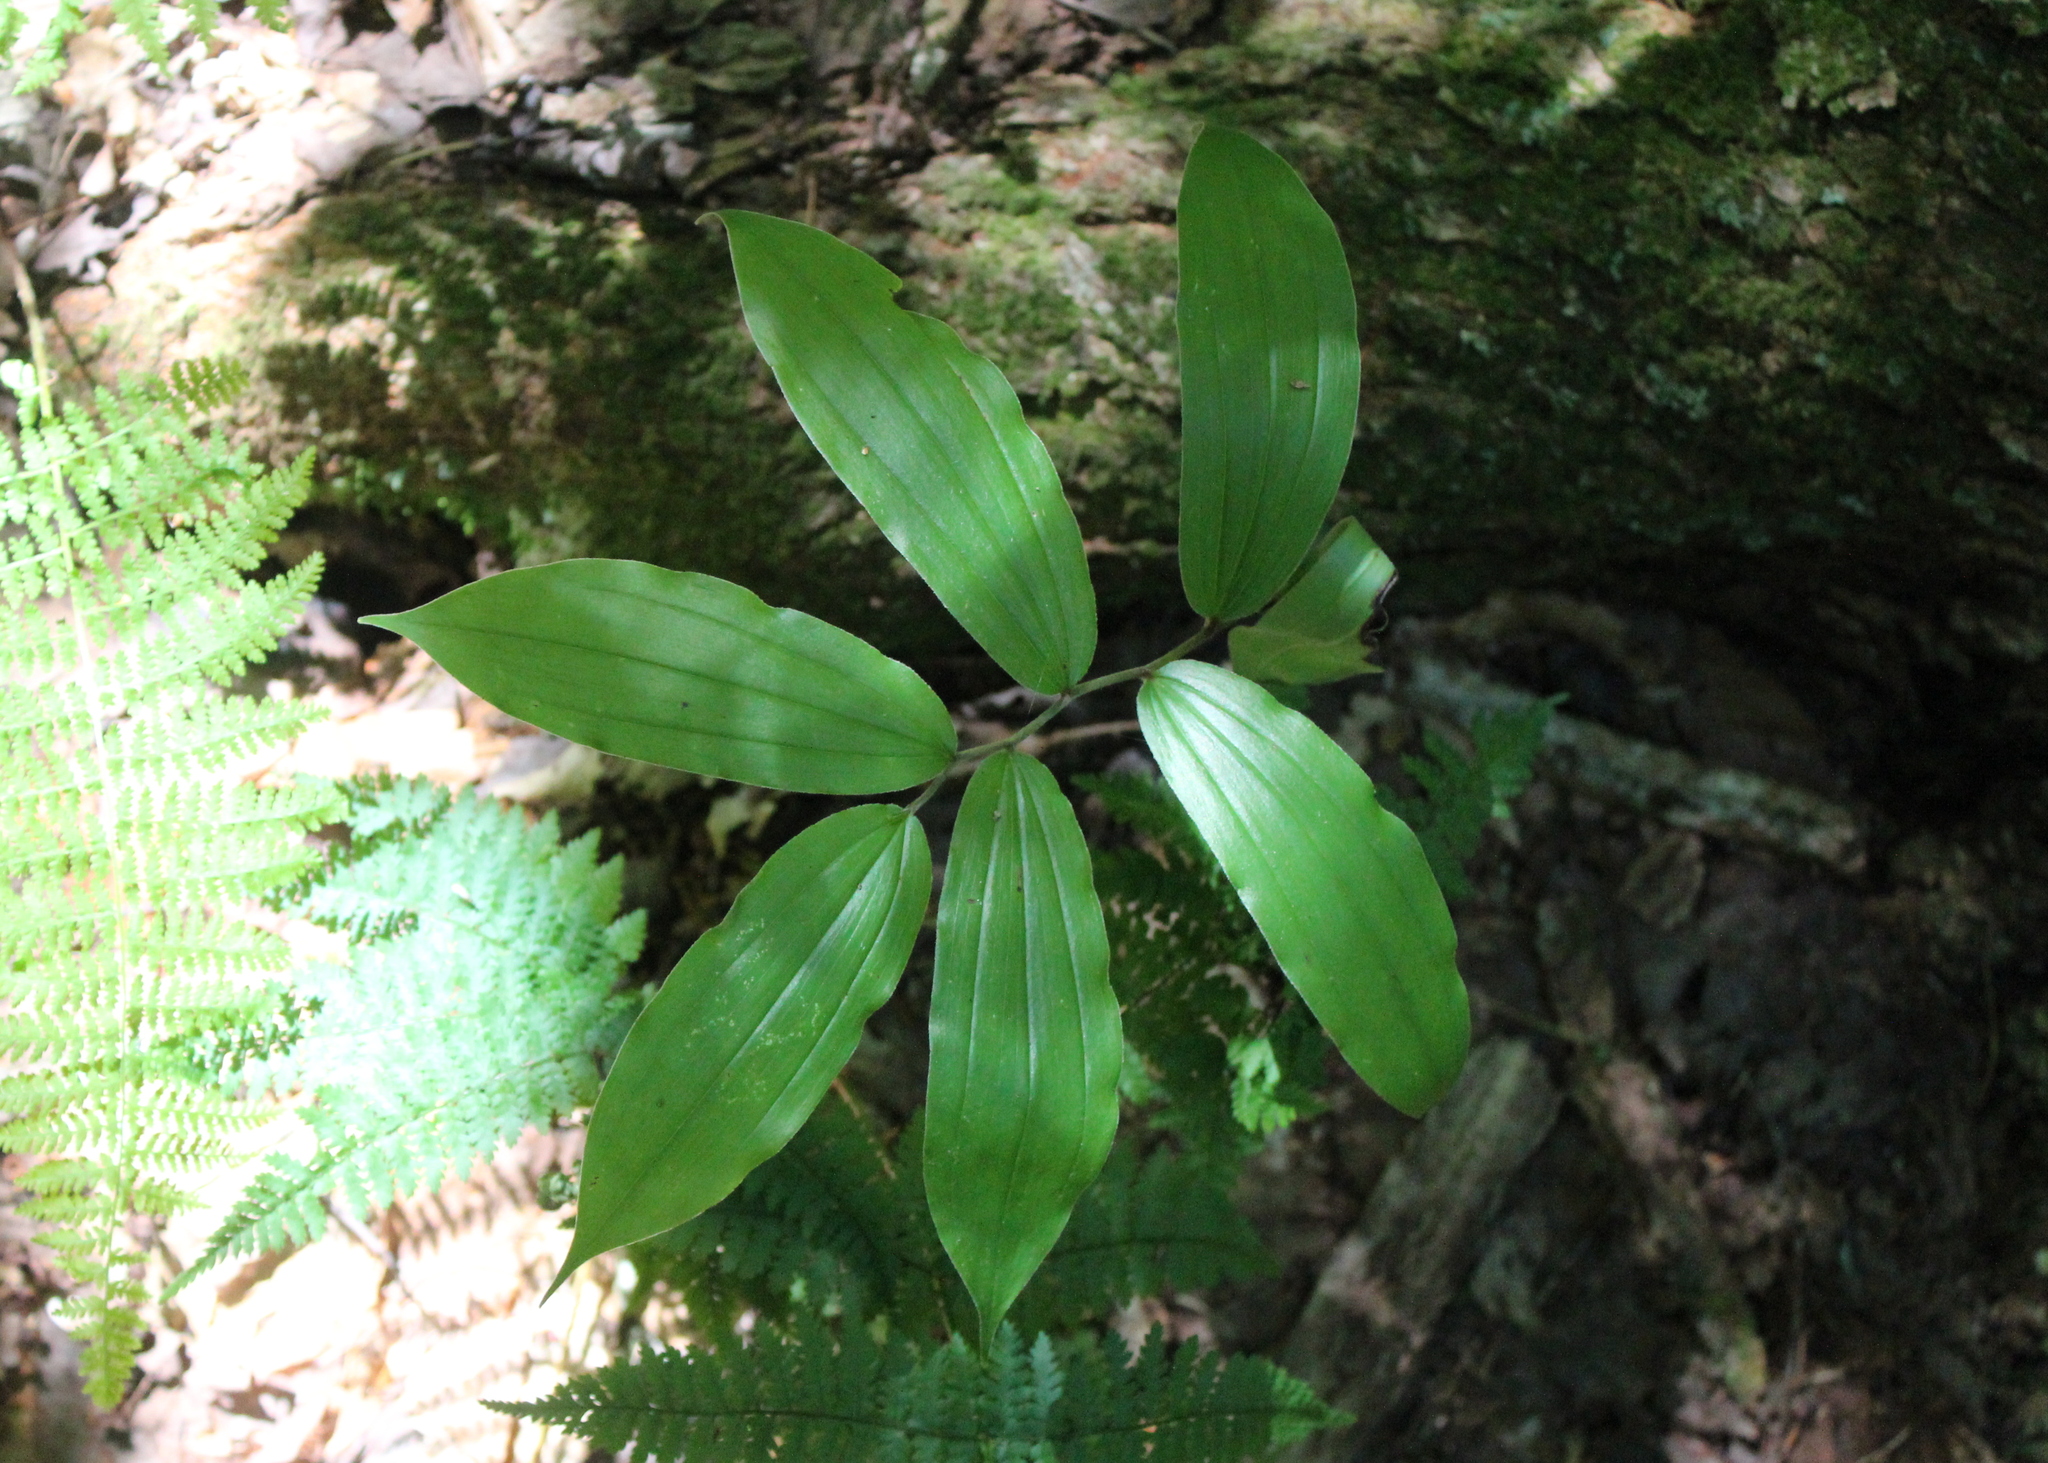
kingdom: Plantae
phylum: Tracheophyta
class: Liliopsida
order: Asparagales
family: Asparagaceae
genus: Maianthemum
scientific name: Maianthemum racemosum
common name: False spikenard
